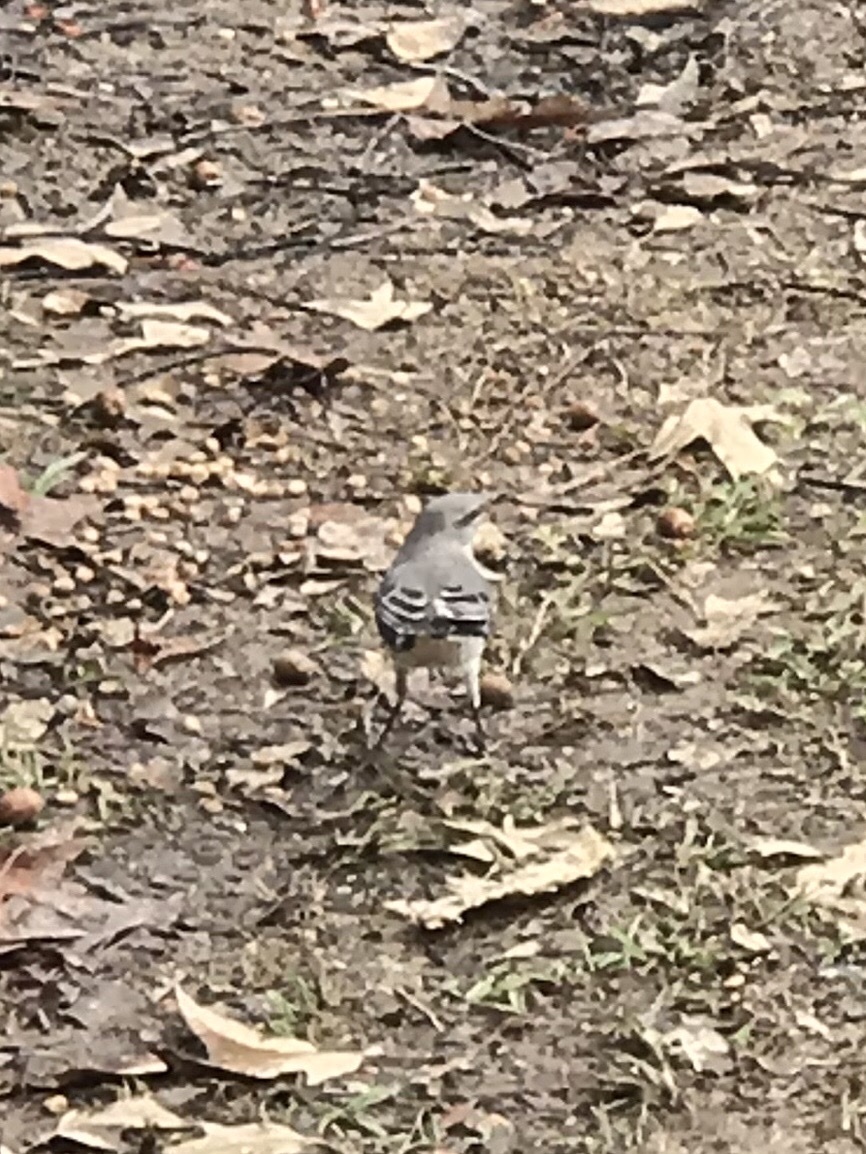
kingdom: Animalia
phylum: Chordata
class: Aves
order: Passeriformes
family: Mimidae
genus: Mimus
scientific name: Mimus polyglottos
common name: Northern mockingbird
